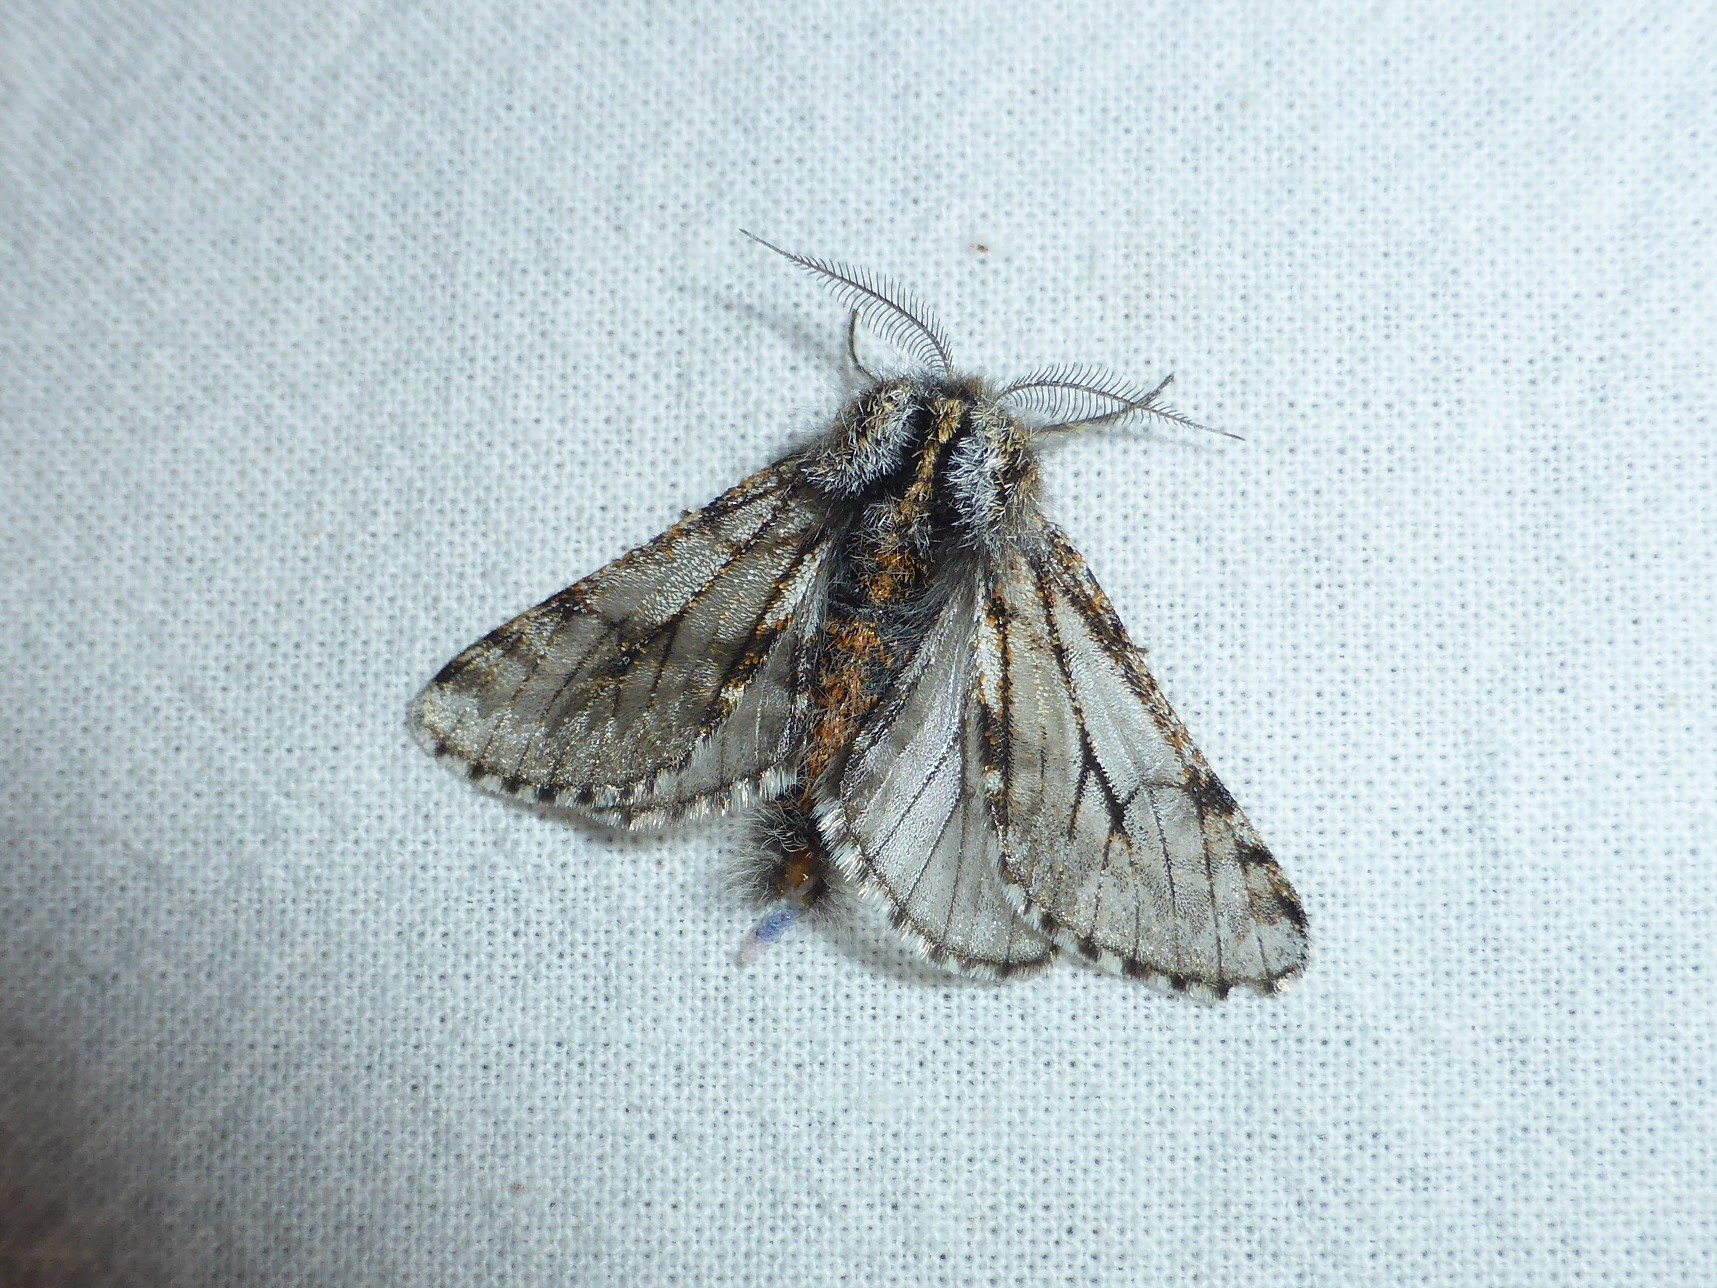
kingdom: Animalia
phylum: Arthropoda
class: Insecta
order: Lepidoptera
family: Geometridae
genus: Lycia
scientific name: Lycia pomonaria
